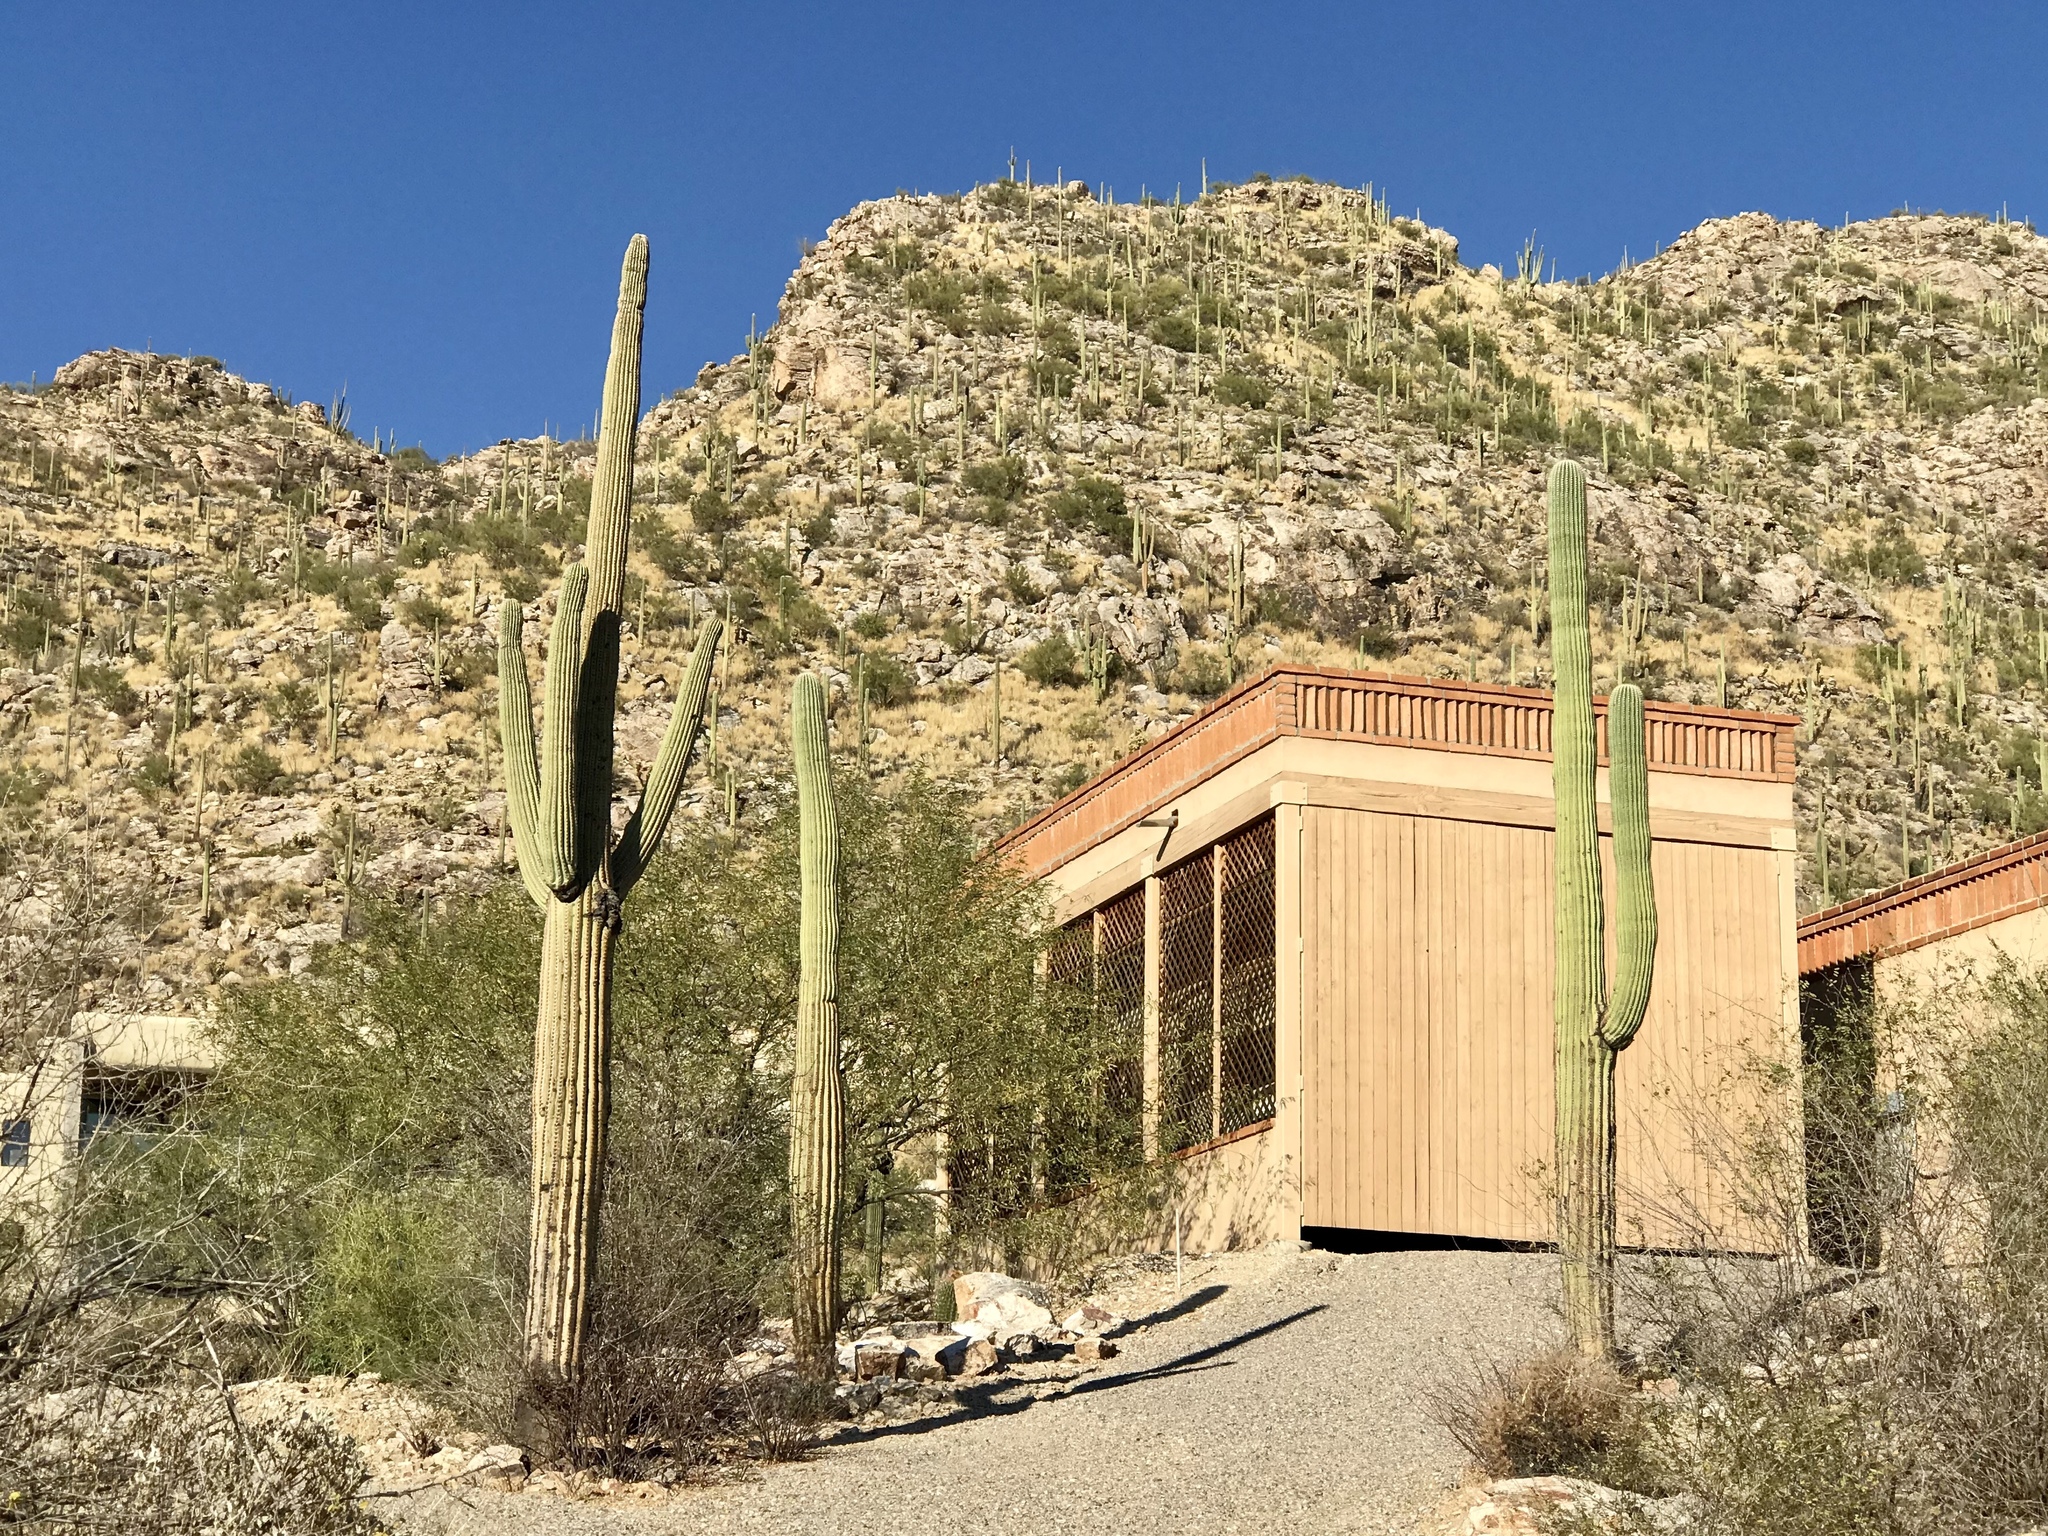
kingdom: Plantae
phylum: Tracheophyta
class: Magnoliopsida
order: Caryophyllales
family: Cactaceae
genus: Carnegiea
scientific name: Carnegiea gigantea
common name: Saguaro
